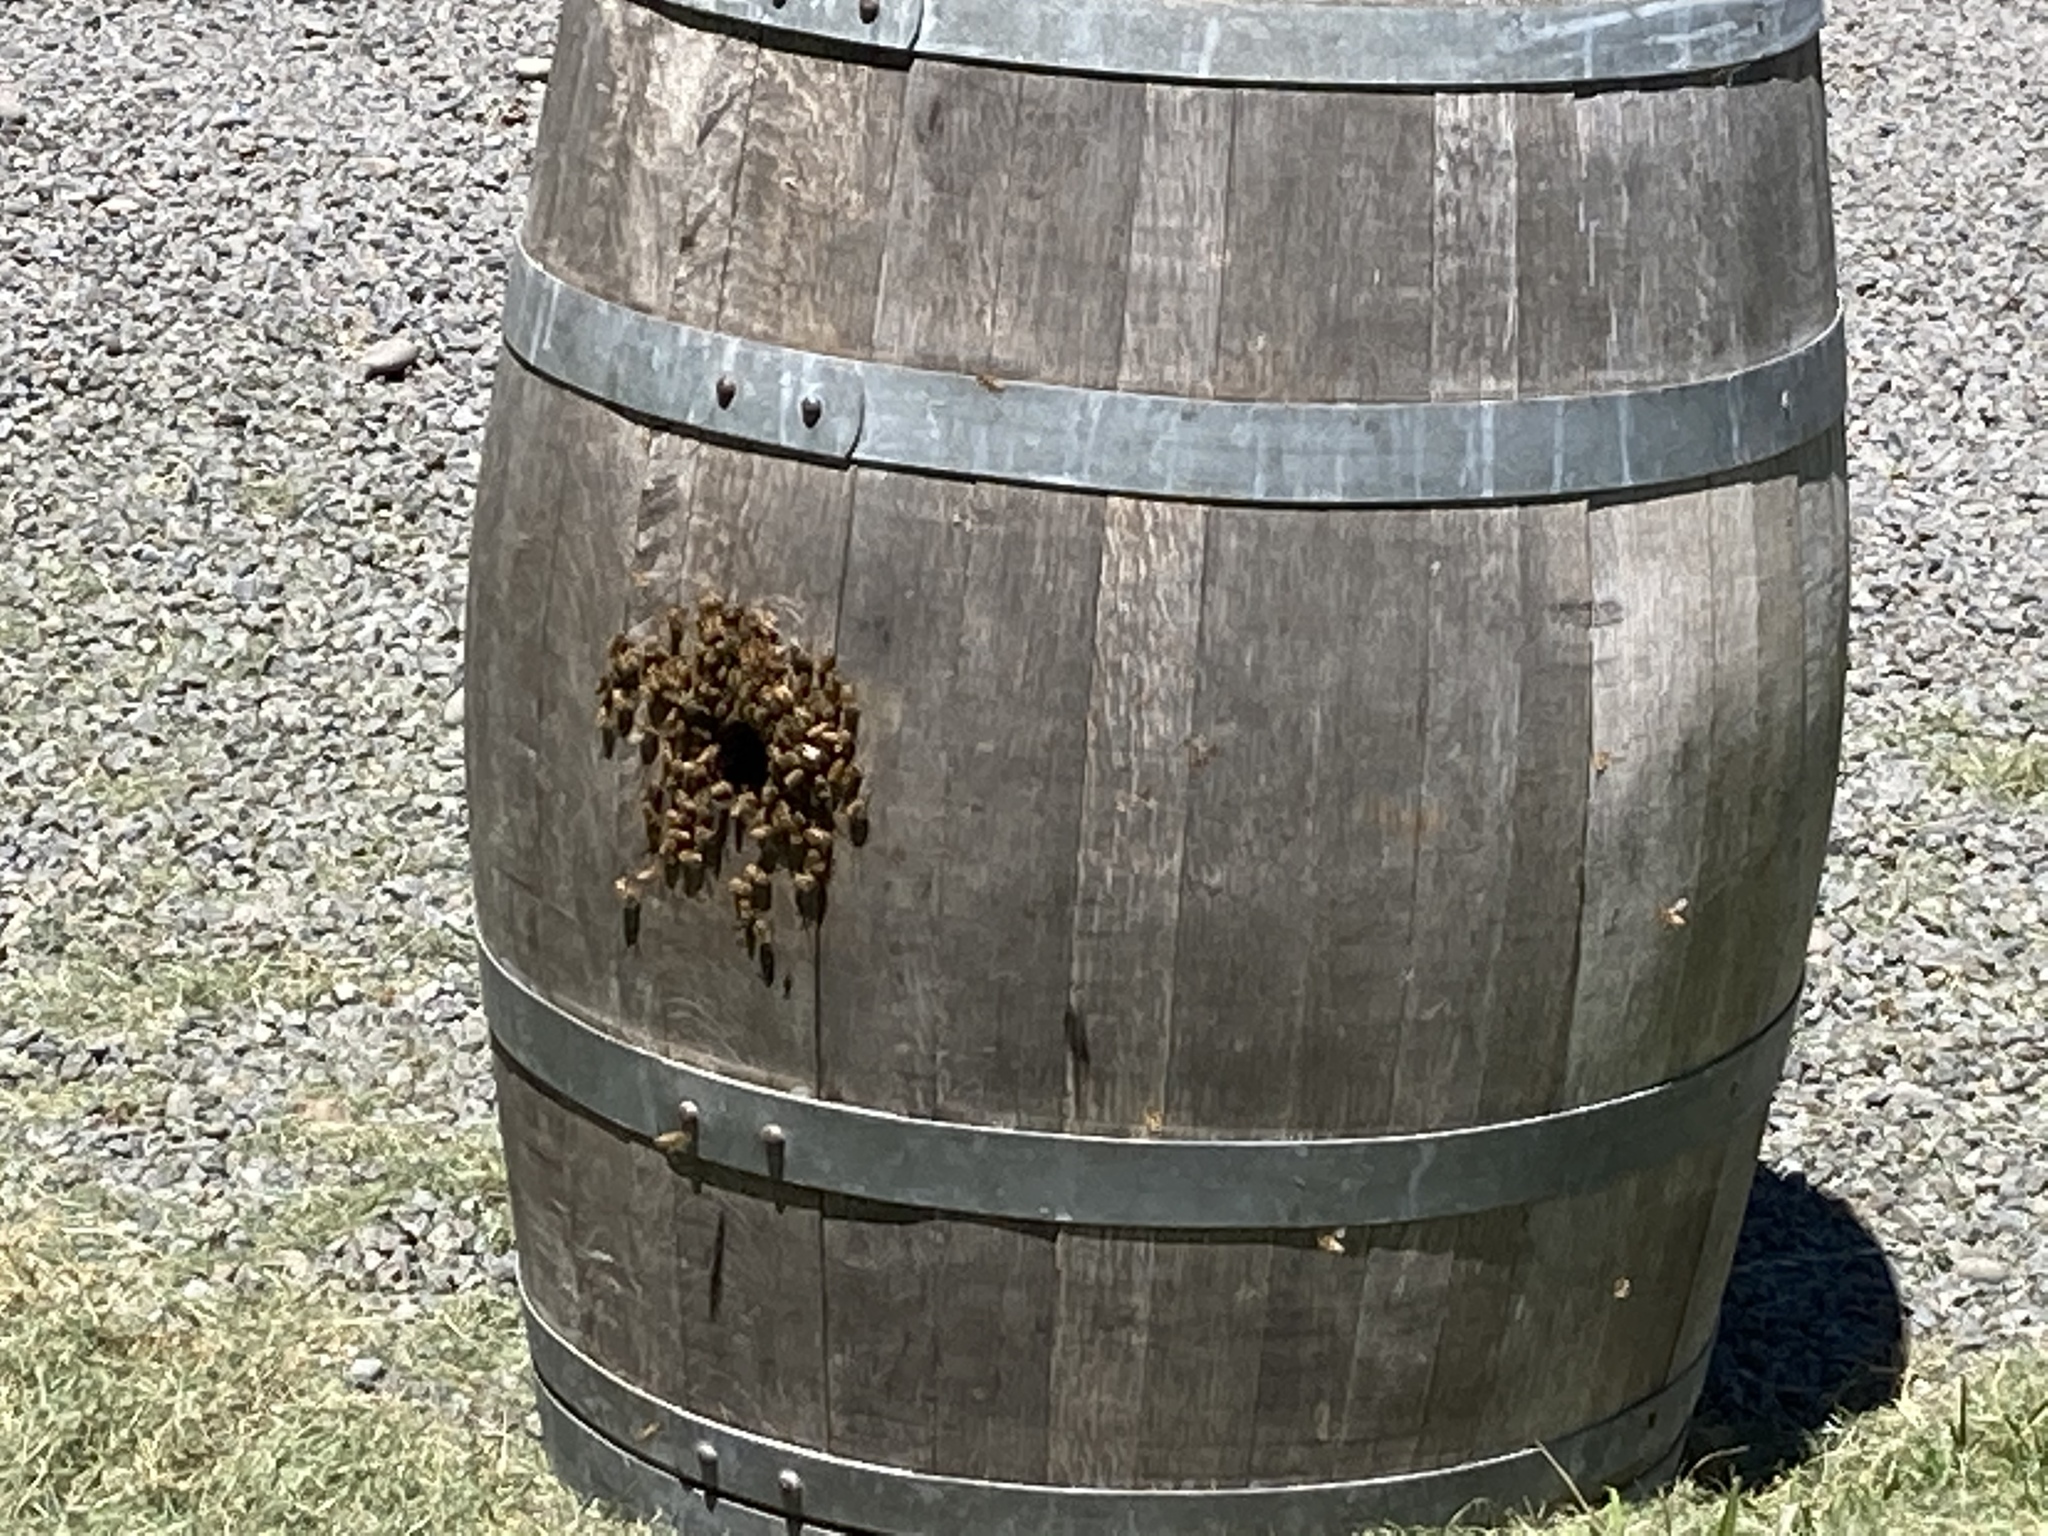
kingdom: Animalia
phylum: Arthropoda
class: Insecta
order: Hymenoptera
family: Apidae
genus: Apis
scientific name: Apis mellifera
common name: Honey bee
